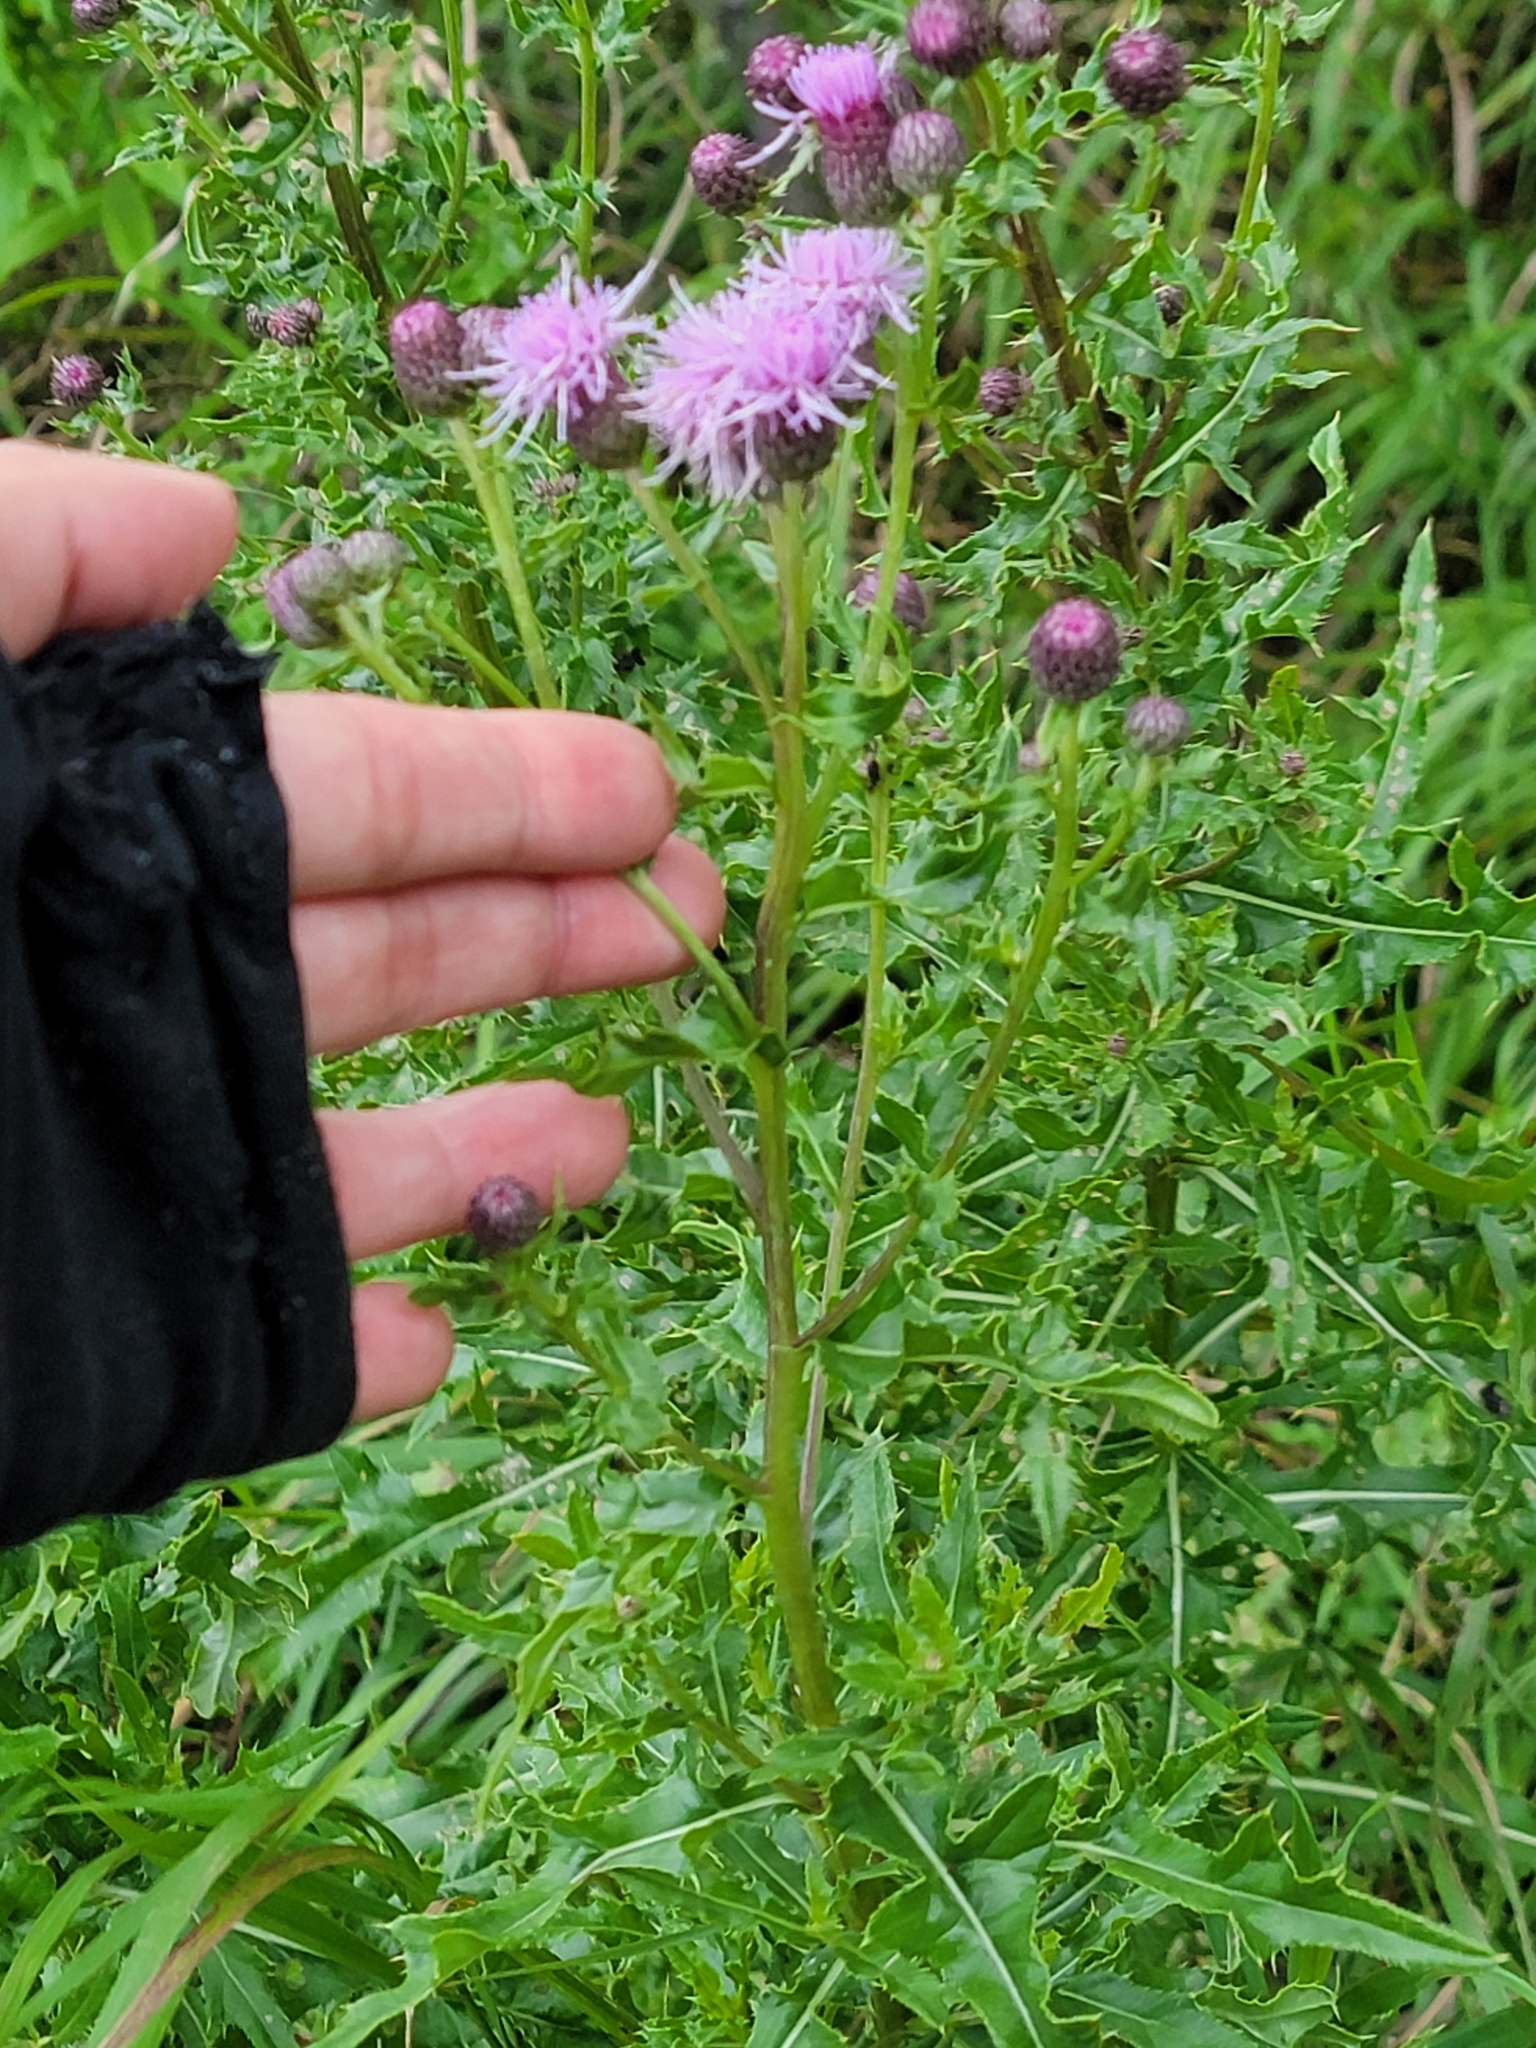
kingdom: Plantae
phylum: Tracheophyta
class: Magnoliopsida
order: Asterales
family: Asteraceae
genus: Cirsium
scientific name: Cirsium arvense
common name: Creeping thistle
